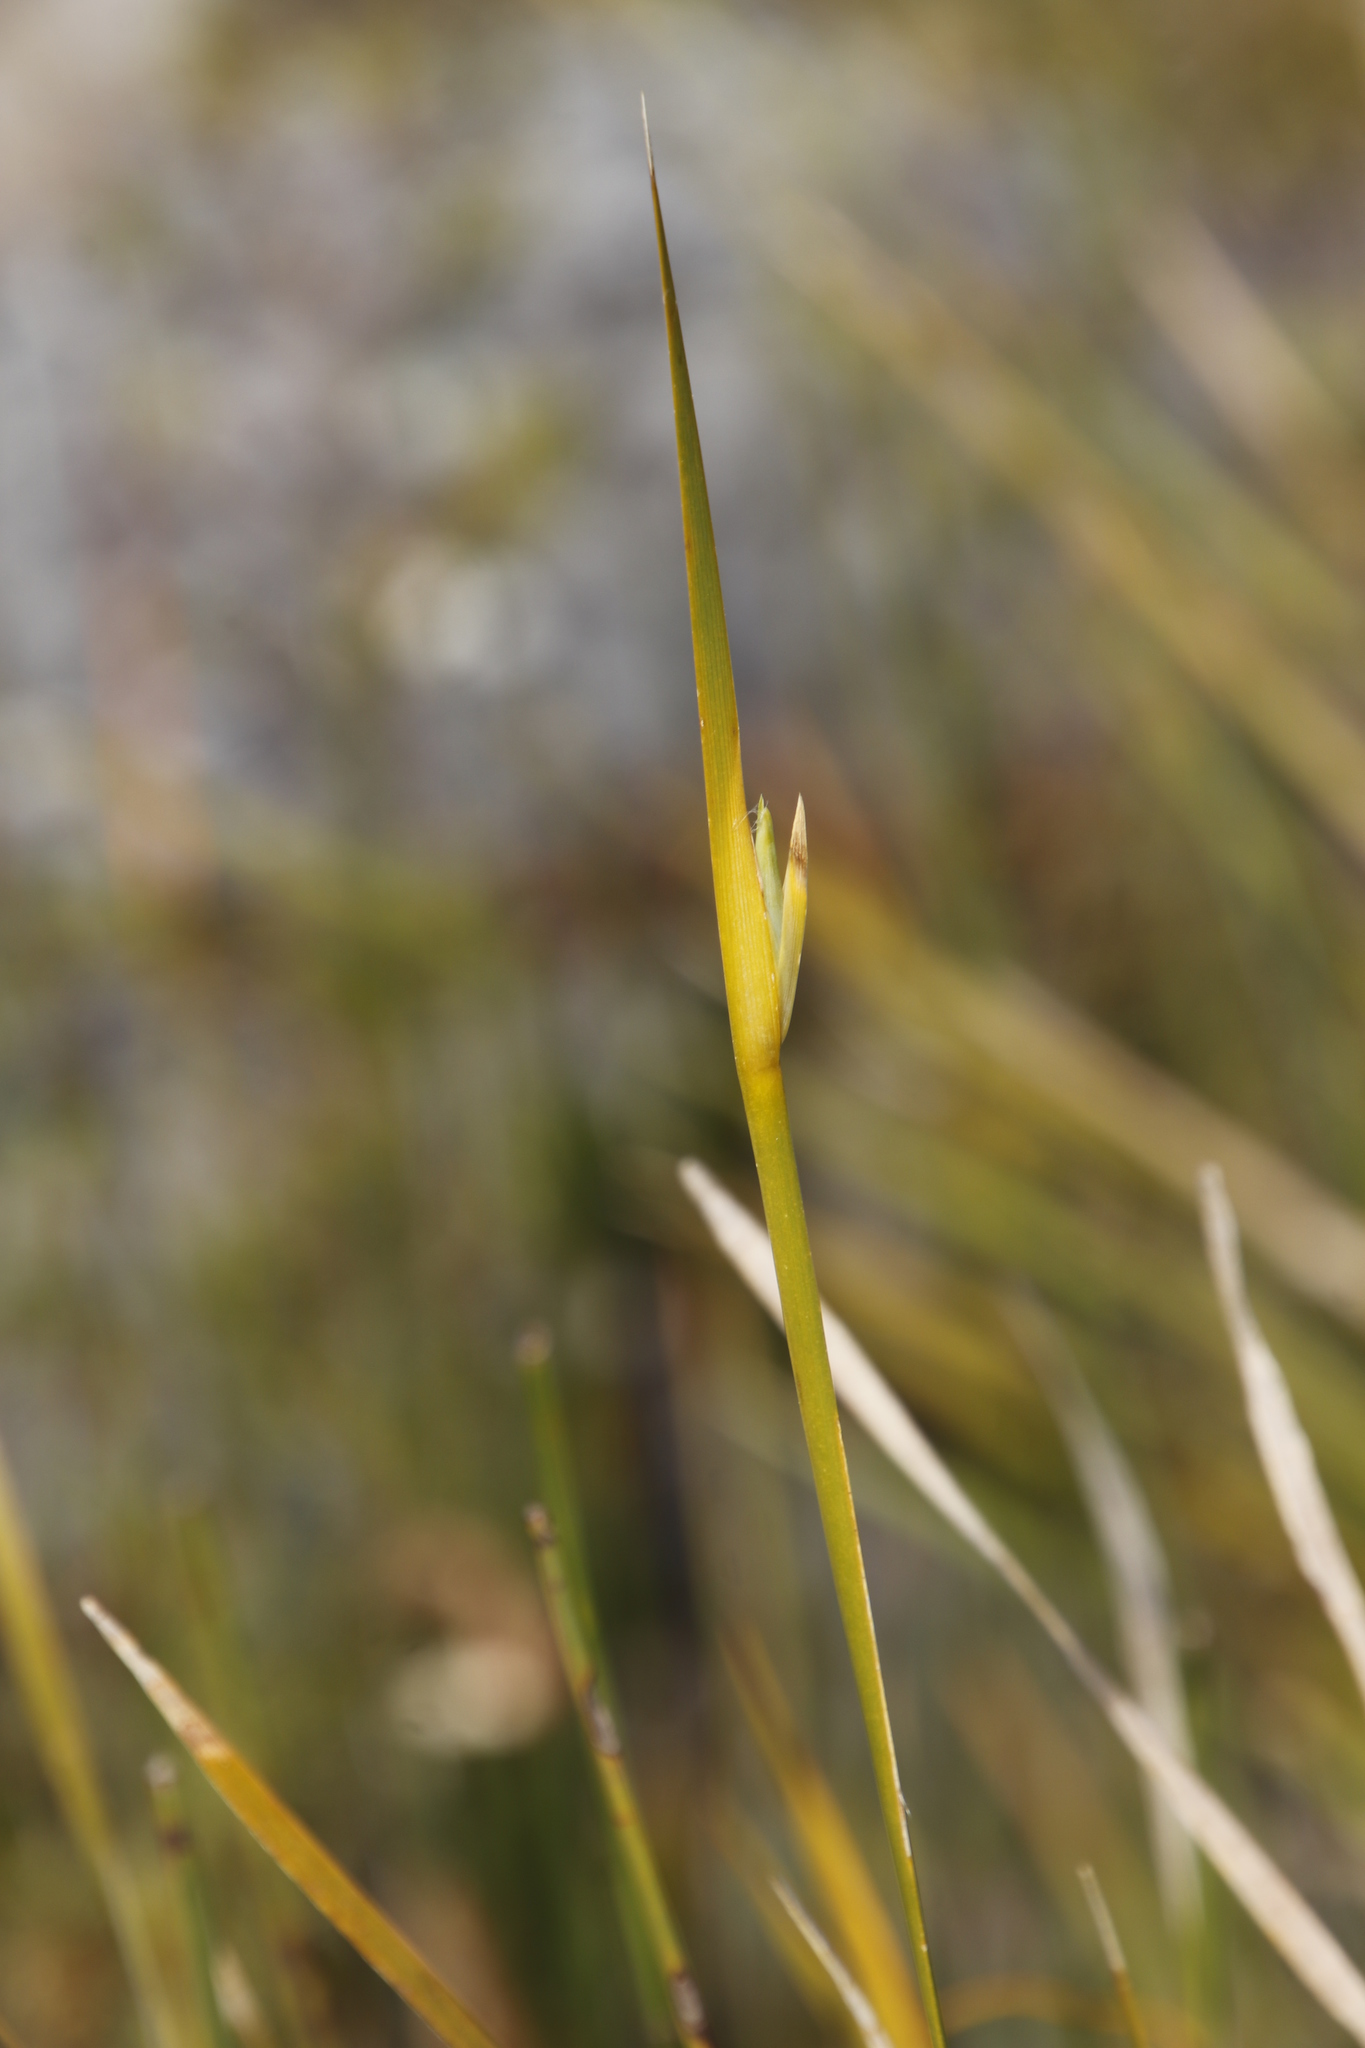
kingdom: Plantae
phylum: Tracheophyta
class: Liliopsida
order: Asparagales
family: Iridaceae
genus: Bobartia
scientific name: Bobartia gladiata
